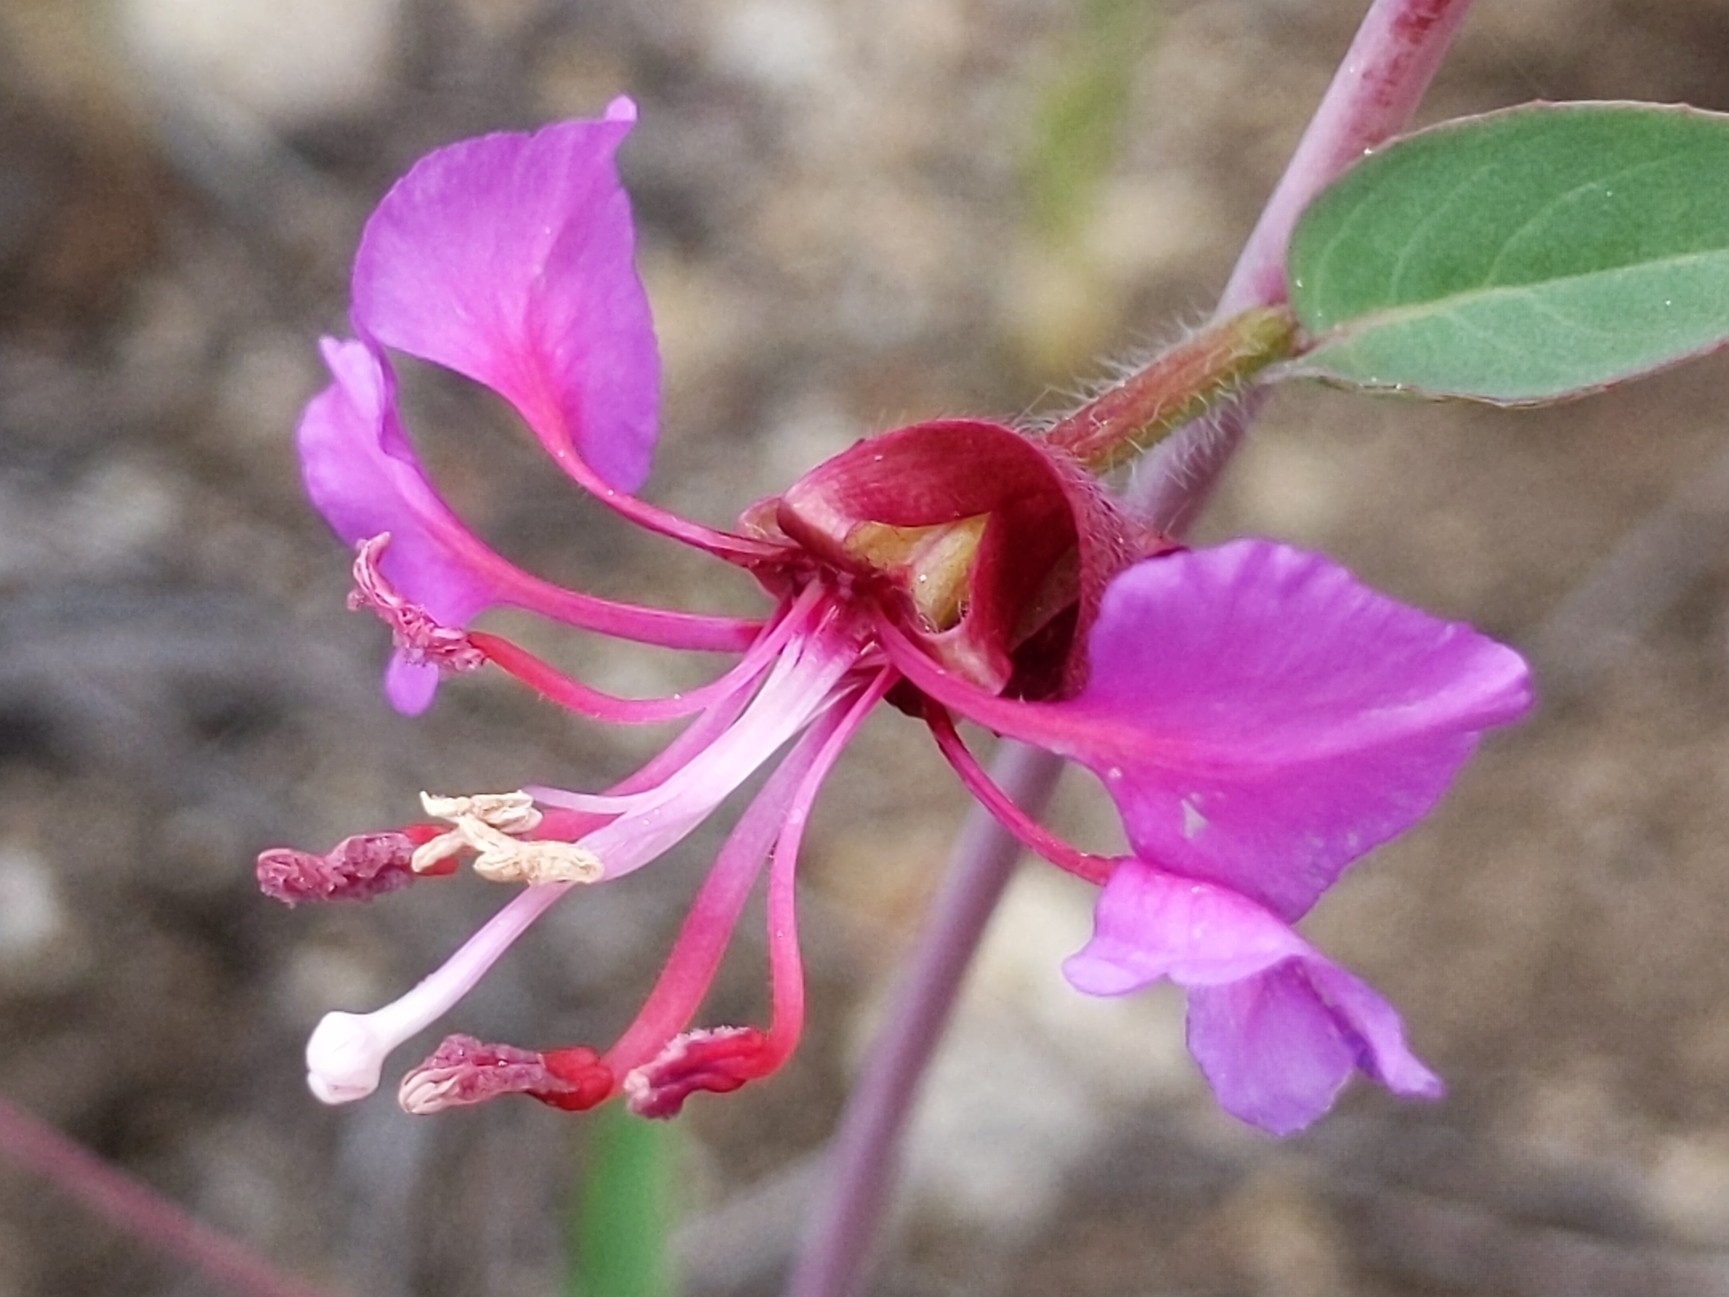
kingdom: Plantae
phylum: Tracheophyta
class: Magnoliopsida
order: Myrtales
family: Onagraceae
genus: Clarkia
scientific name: Clarkia unguiculata
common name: Clarkia
